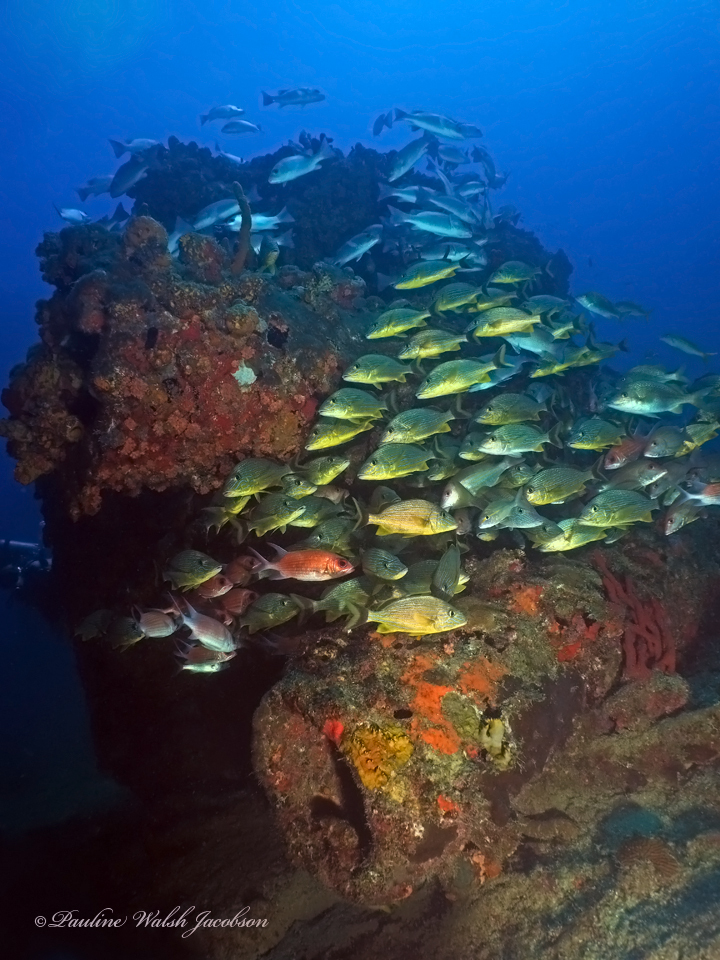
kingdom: Animalia
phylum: Chordata
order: Perciformes
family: Haemulidae
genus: Haemulon
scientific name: Haemulon sciurus
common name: Bluestriped grunt
